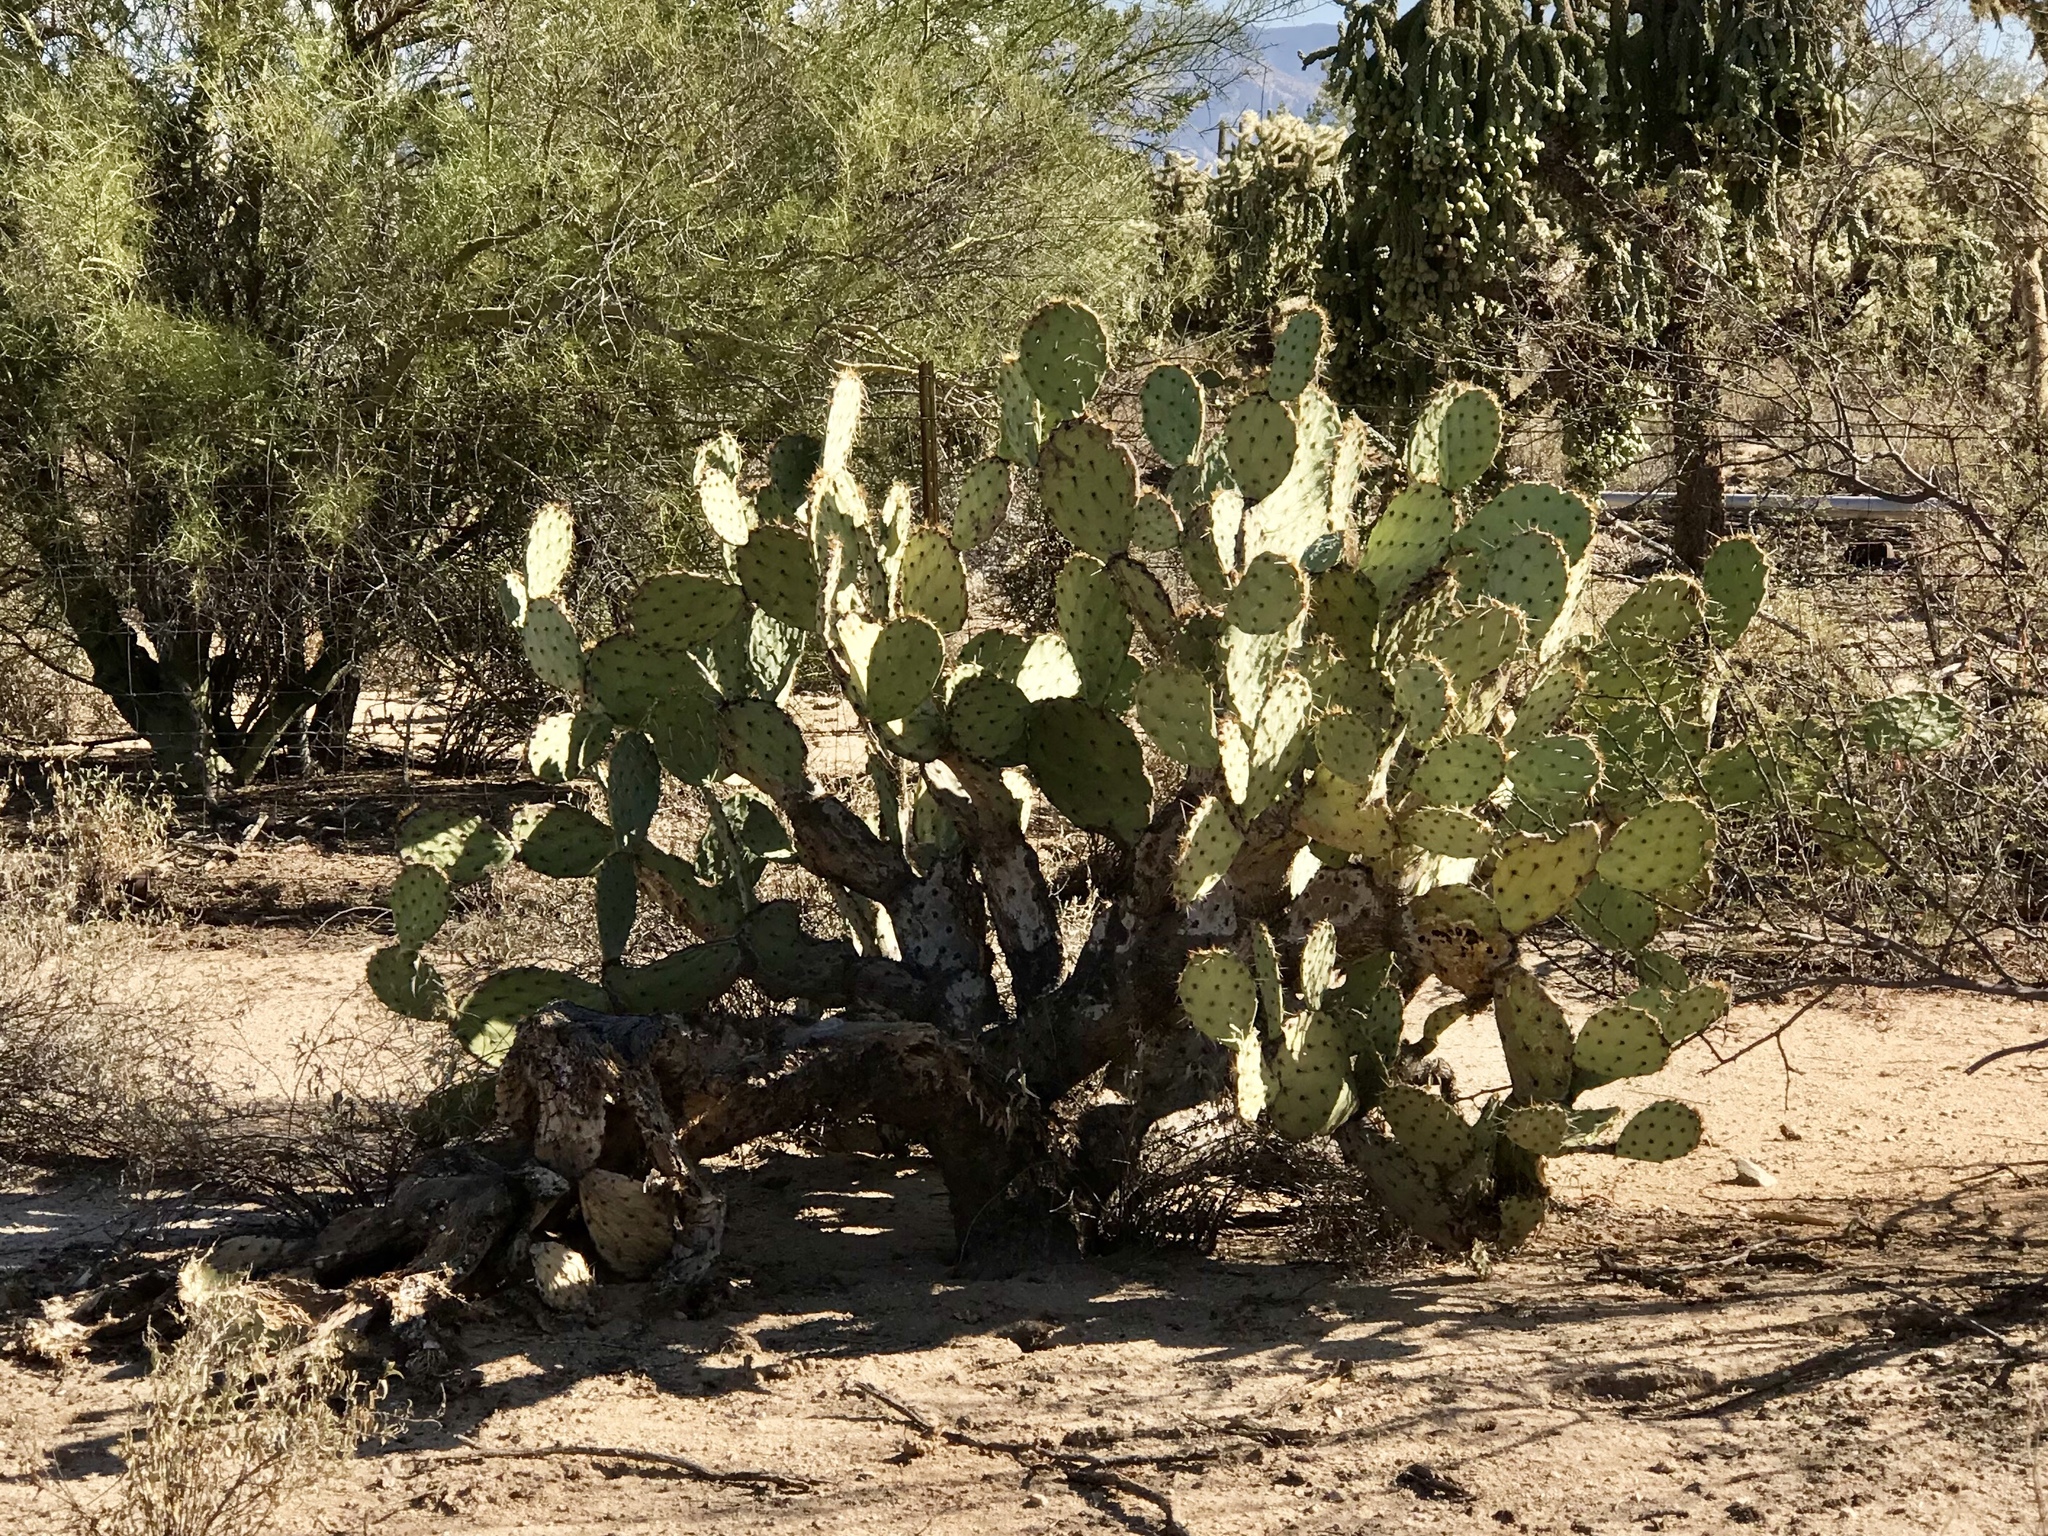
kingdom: Plantae
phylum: Tracheophyta
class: Magnoliopsida
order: Caryophyllales
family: Cactaceae
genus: Opuntia
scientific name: Opuntia engelmannii
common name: Cactus-apple
